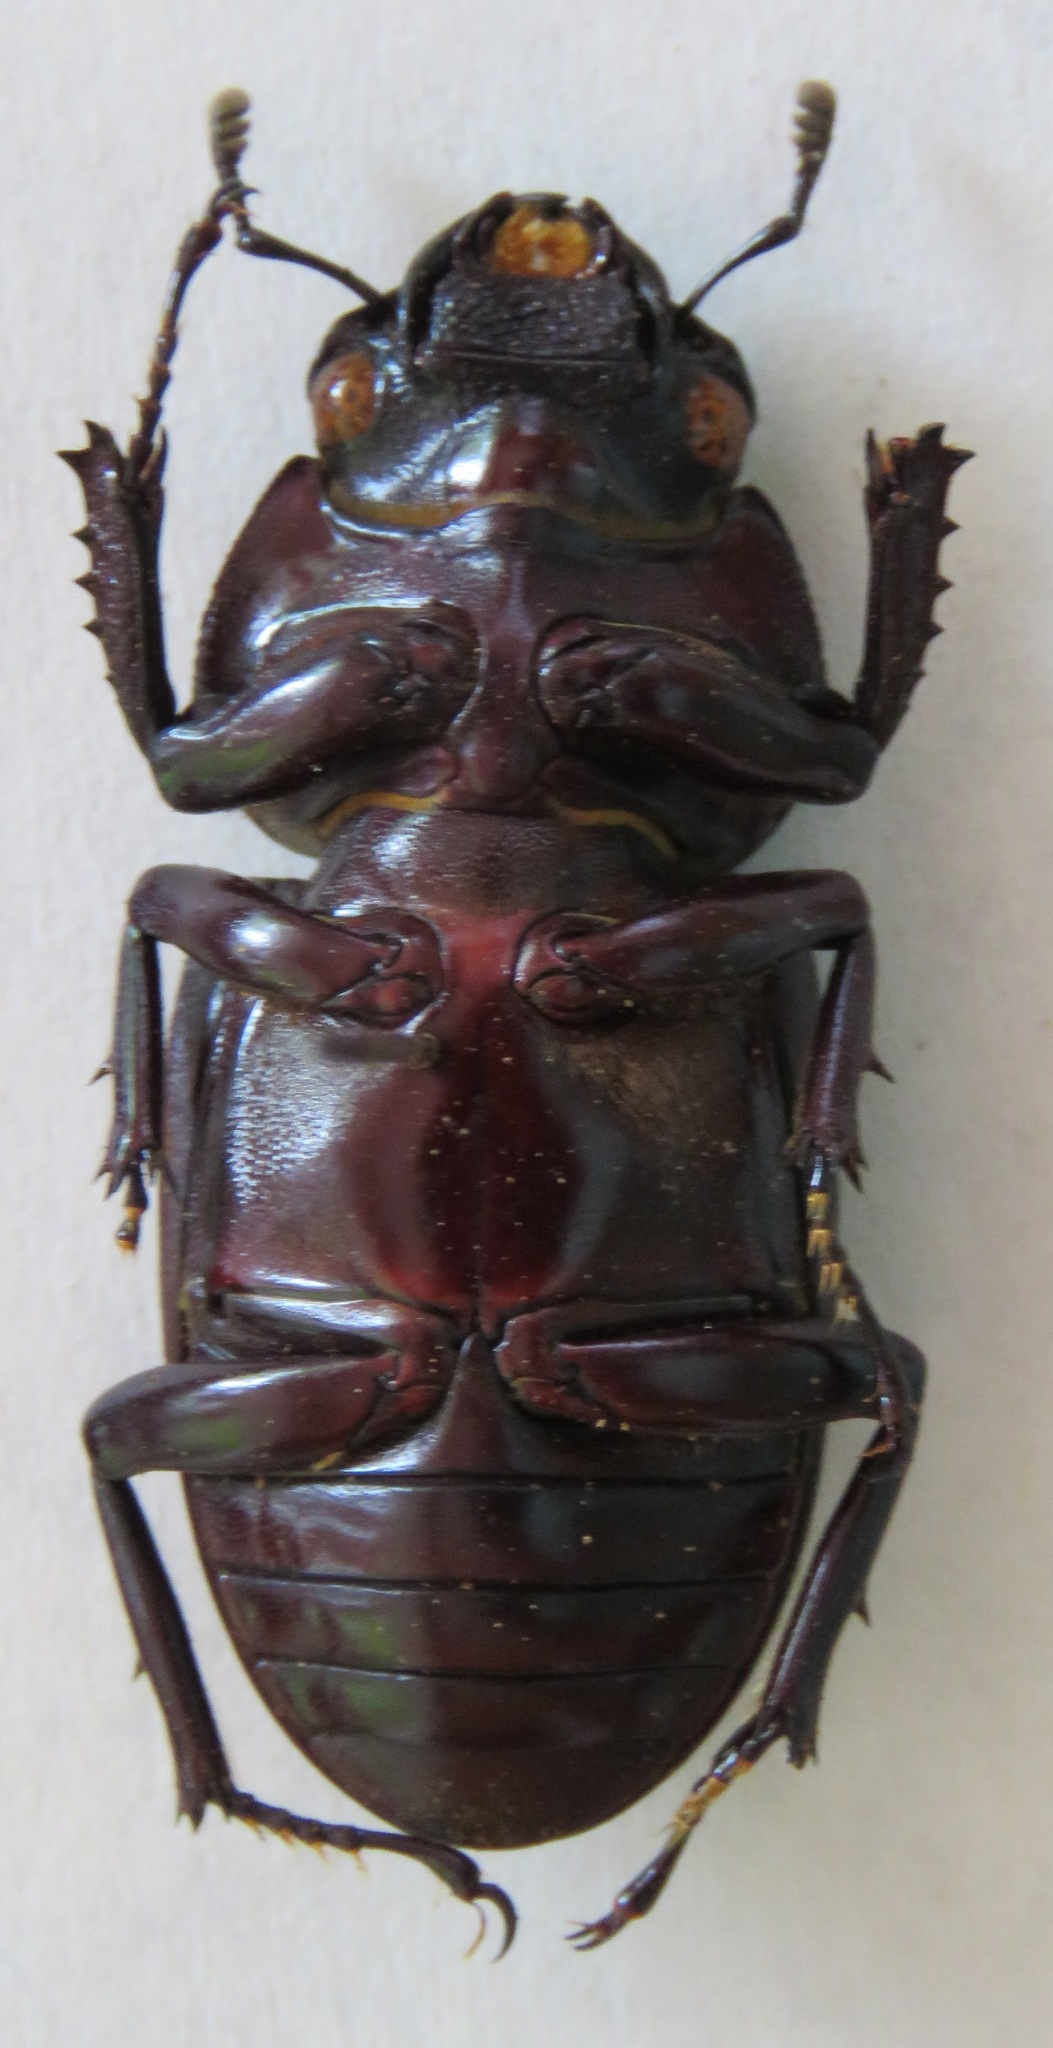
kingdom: Animalia
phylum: Arthropoda
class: Insecta
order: Coleoptera
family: Lucanidae
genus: Dorcus
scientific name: Dorcus antaeus
